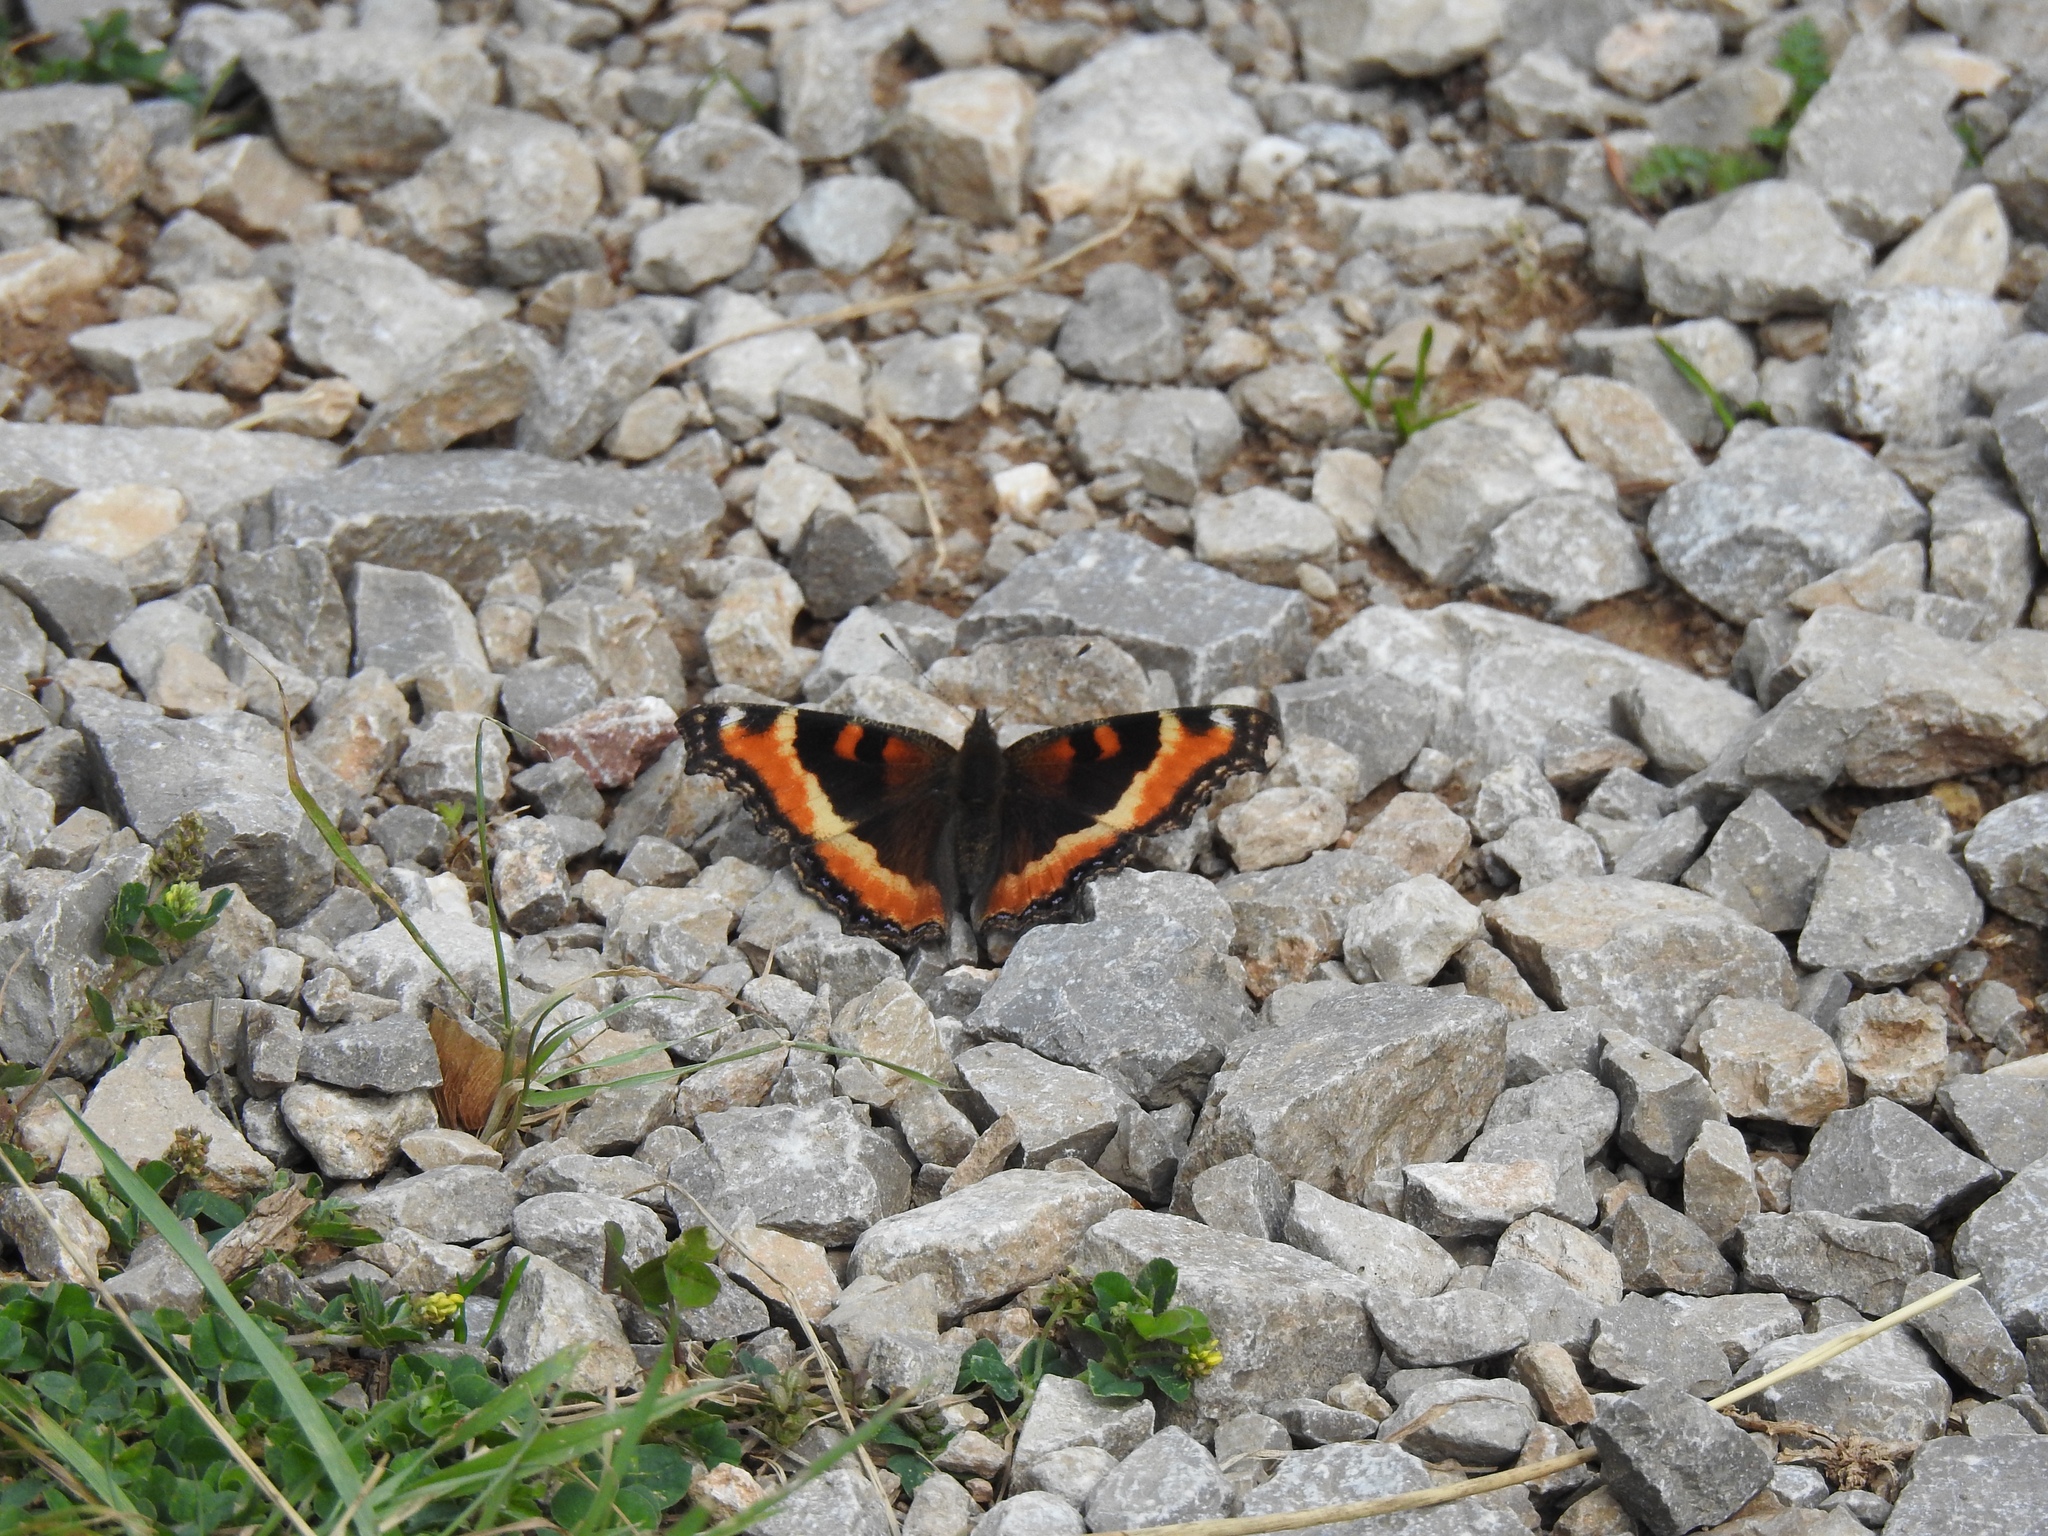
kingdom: Animalia
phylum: Arthropoda
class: Insecta
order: Lepidoptera
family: Nymphalidae
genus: Aglais
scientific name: Aglais milberti
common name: Milbert's tortoiseshell
